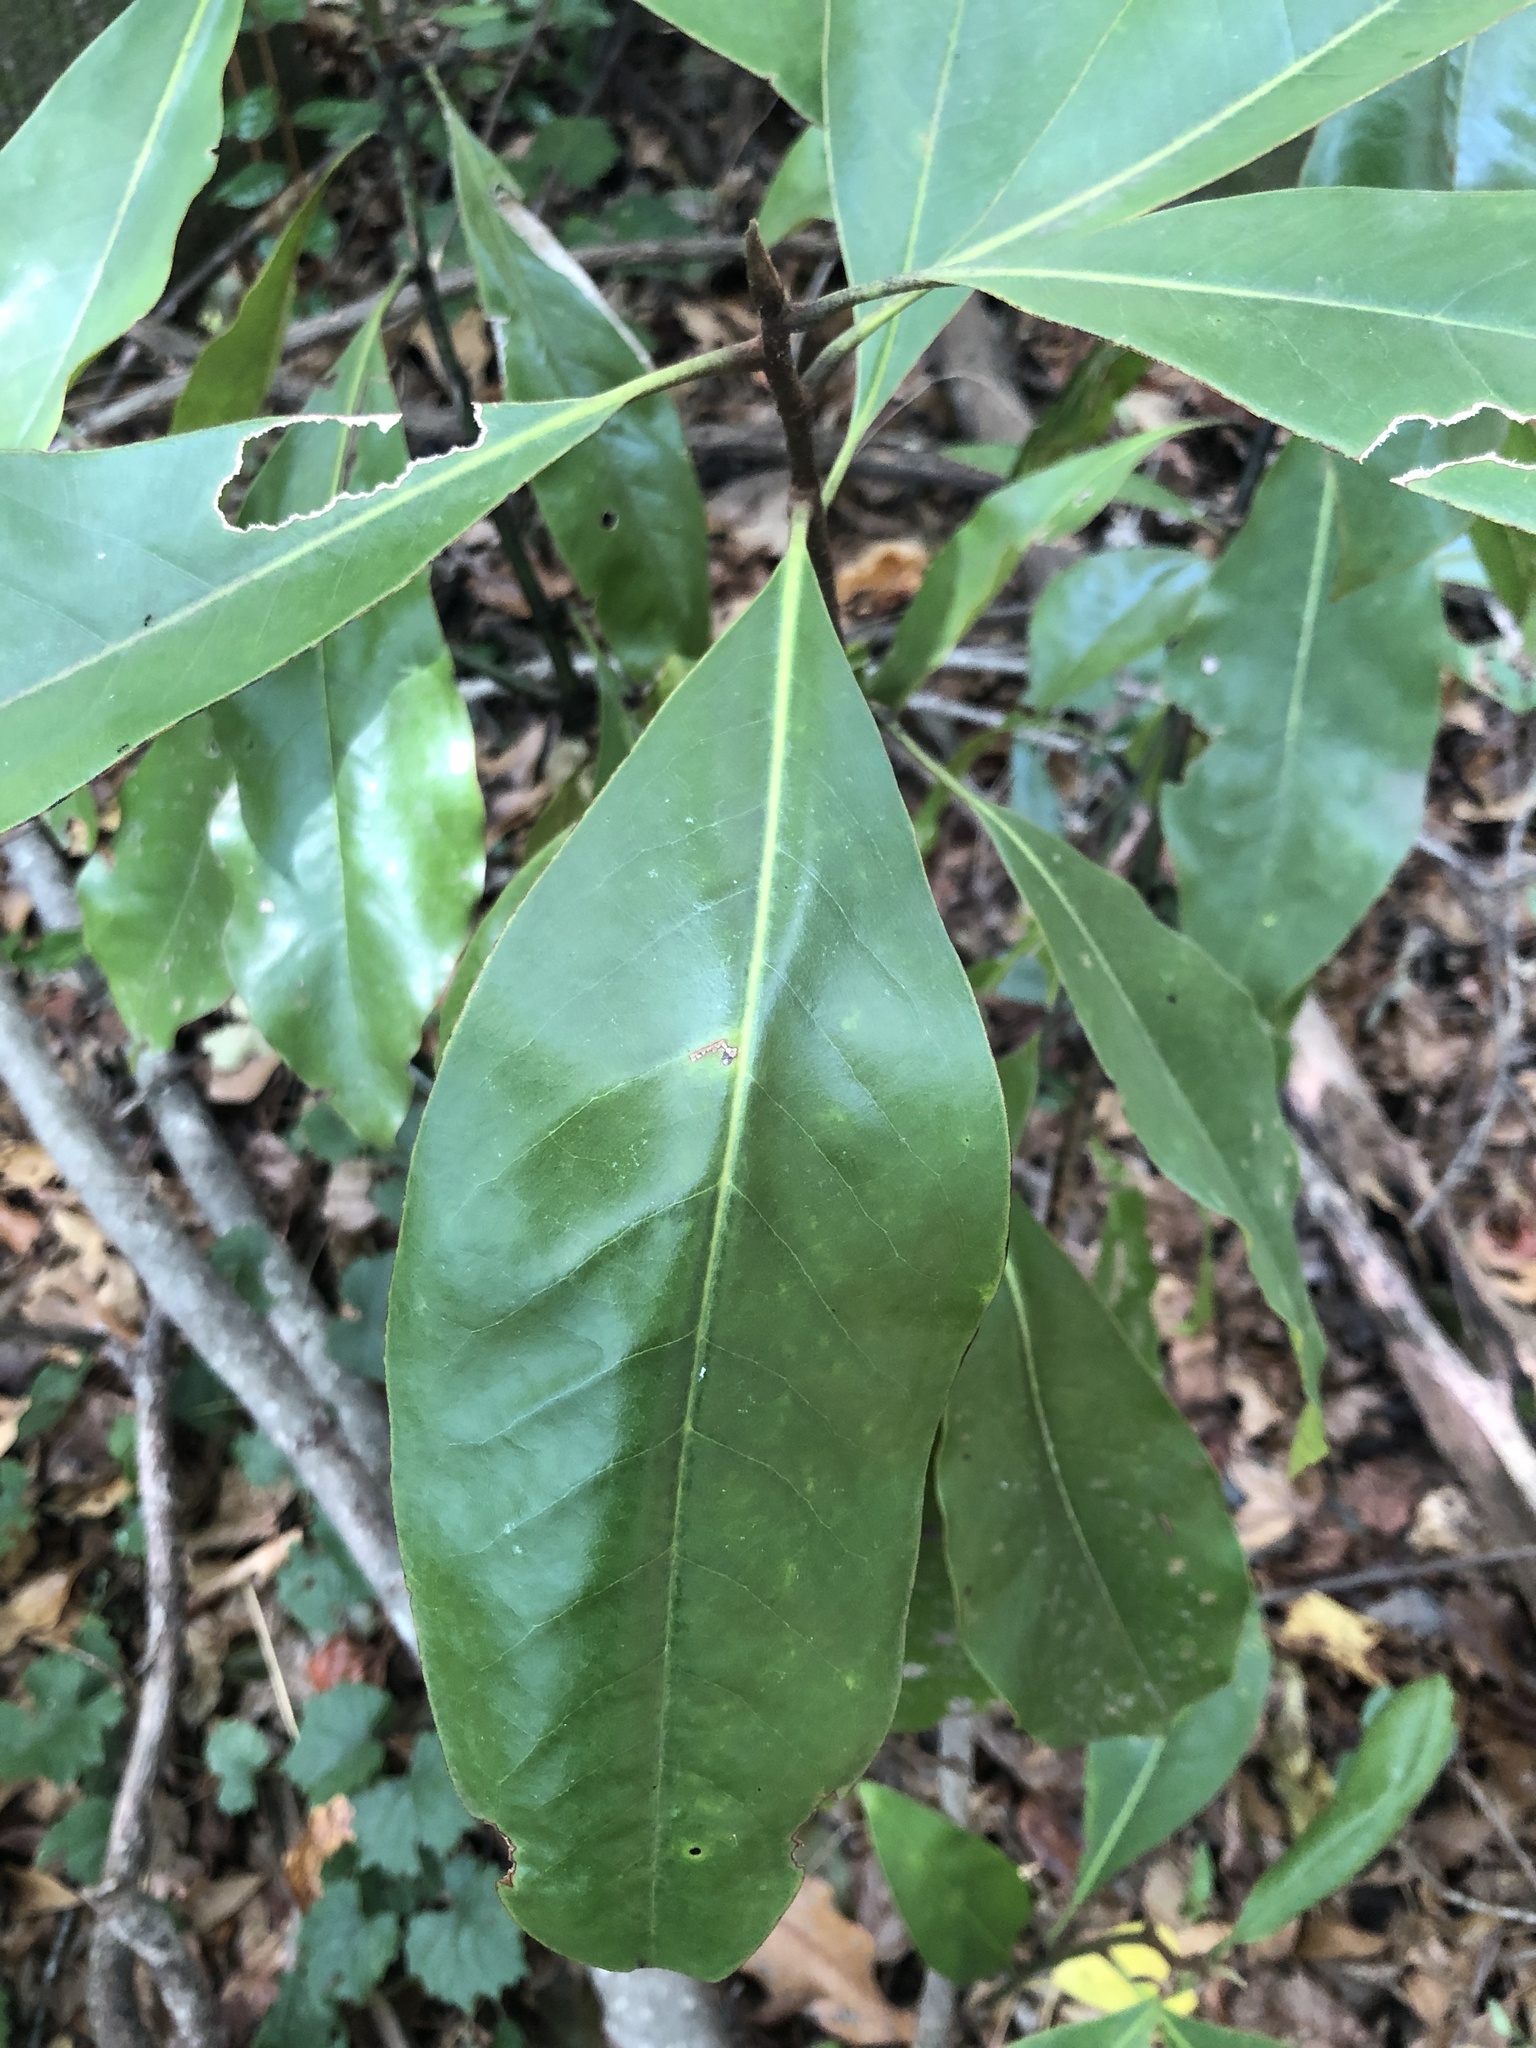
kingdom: Plantae
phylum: Tracheophyta
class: Magnoliopsida
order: Magnoliales
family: Magnoliaceae
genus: Magnolia
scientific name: Magnolia grandiflora
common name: Southern magnolia
